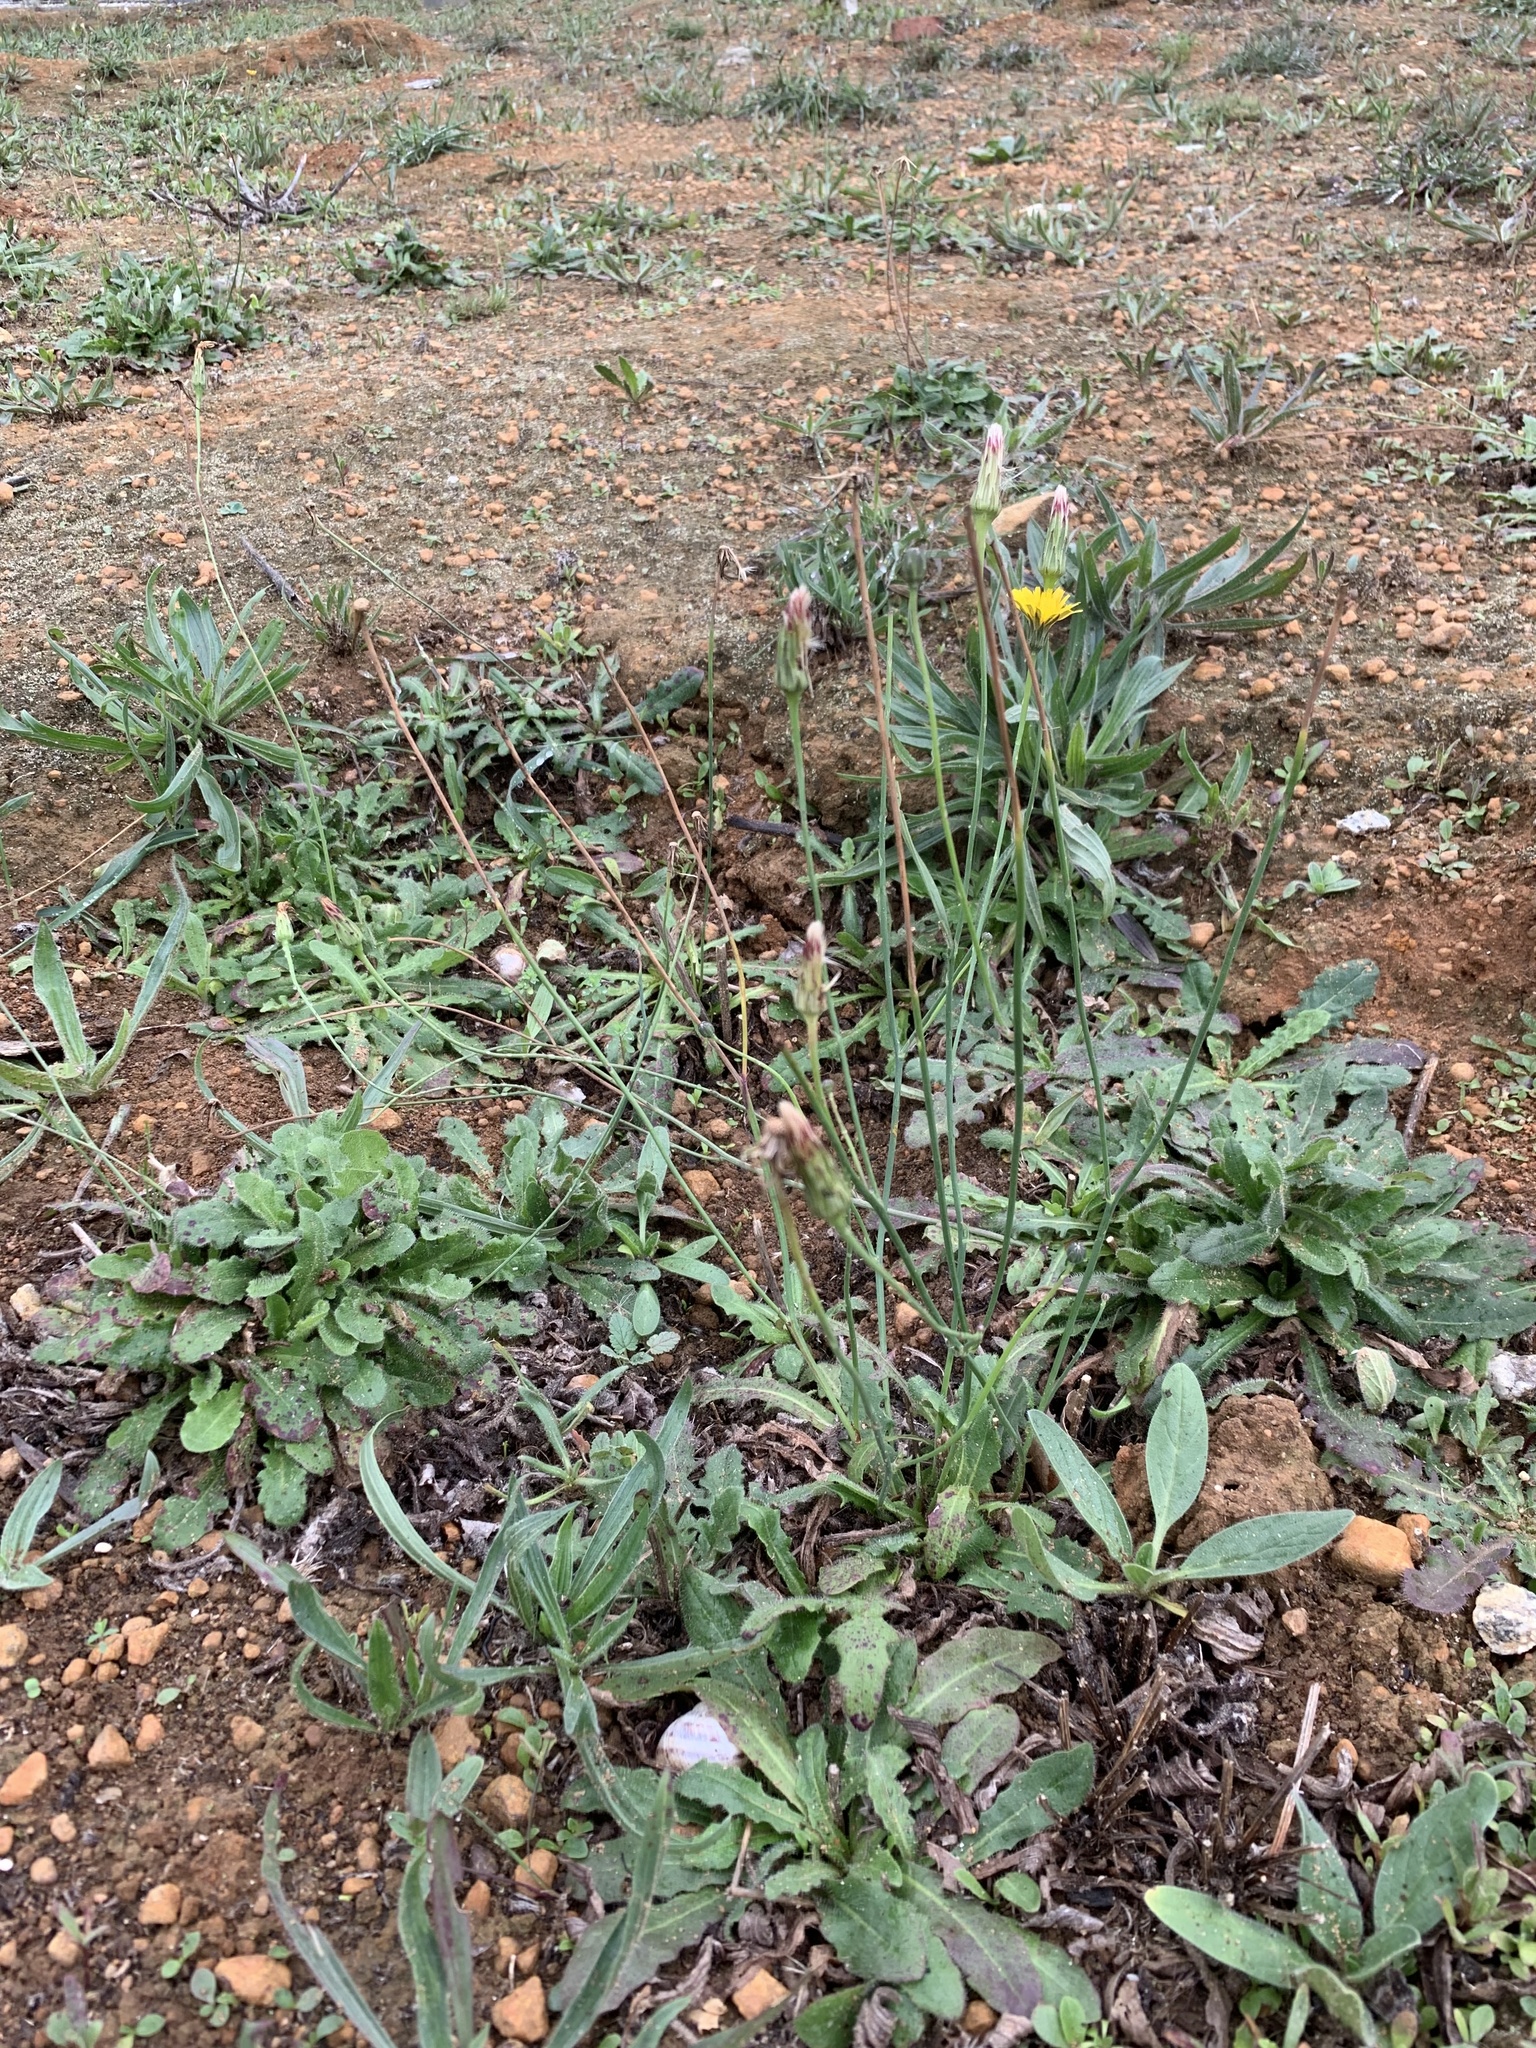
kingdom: Plantae
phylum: Tracheophyta
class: Magnoliopsida
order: Asterales
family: Asteraceae
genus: Hypochaeris
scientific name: Hypochaeris radicata
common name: Flatweed
